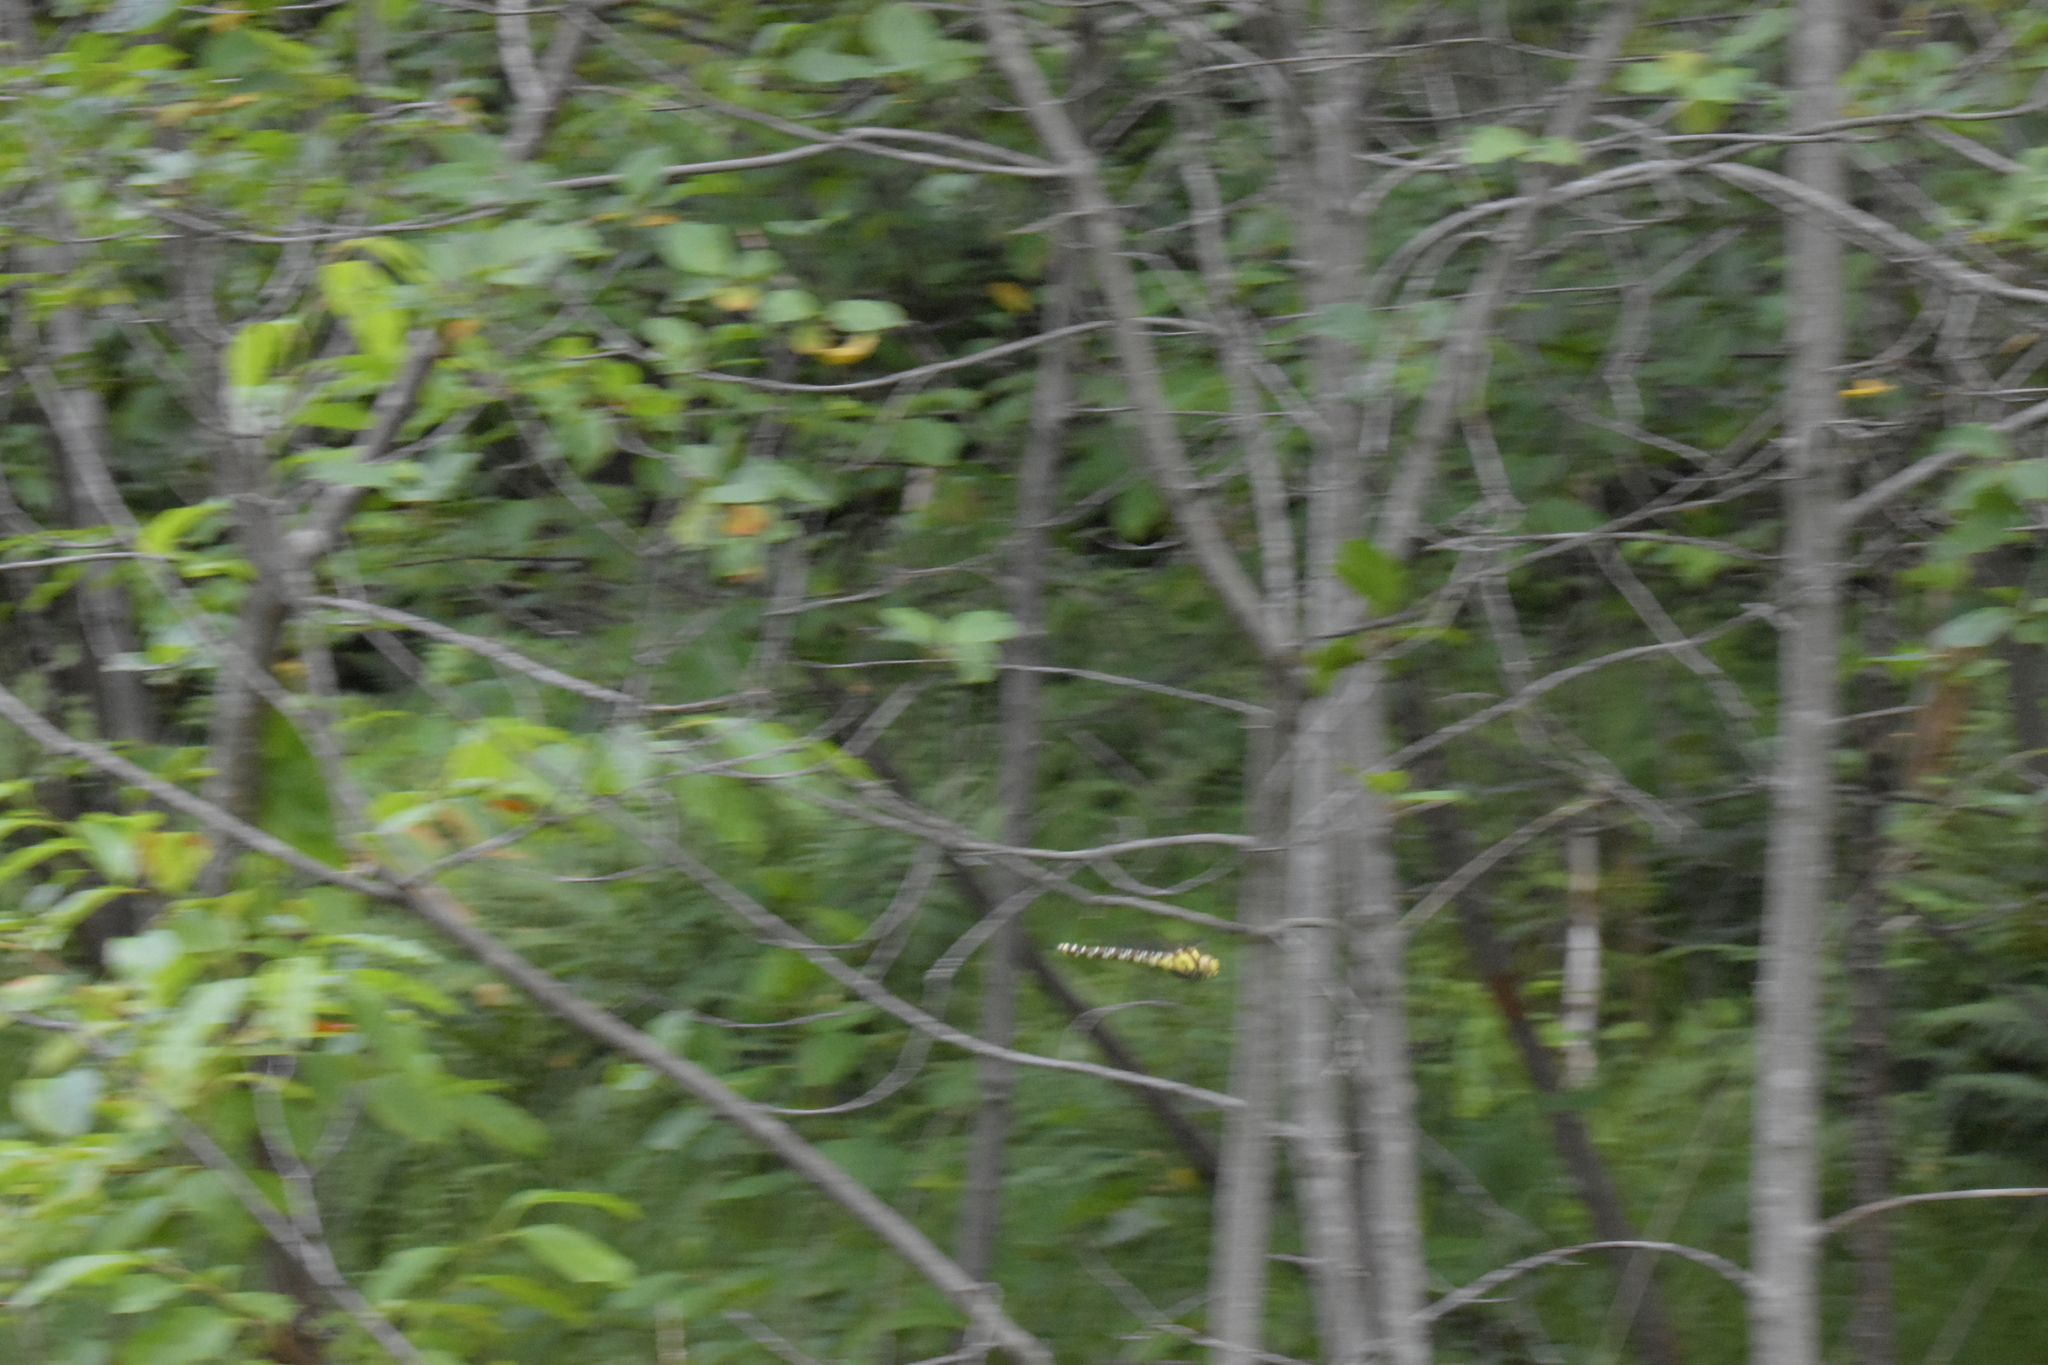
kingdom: Animalia
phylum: Arthropoda
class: Insecta
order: Odonata
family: Aeshnidae
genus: Aeshna
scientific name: Aeshna cyanea
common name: Southern hawker
